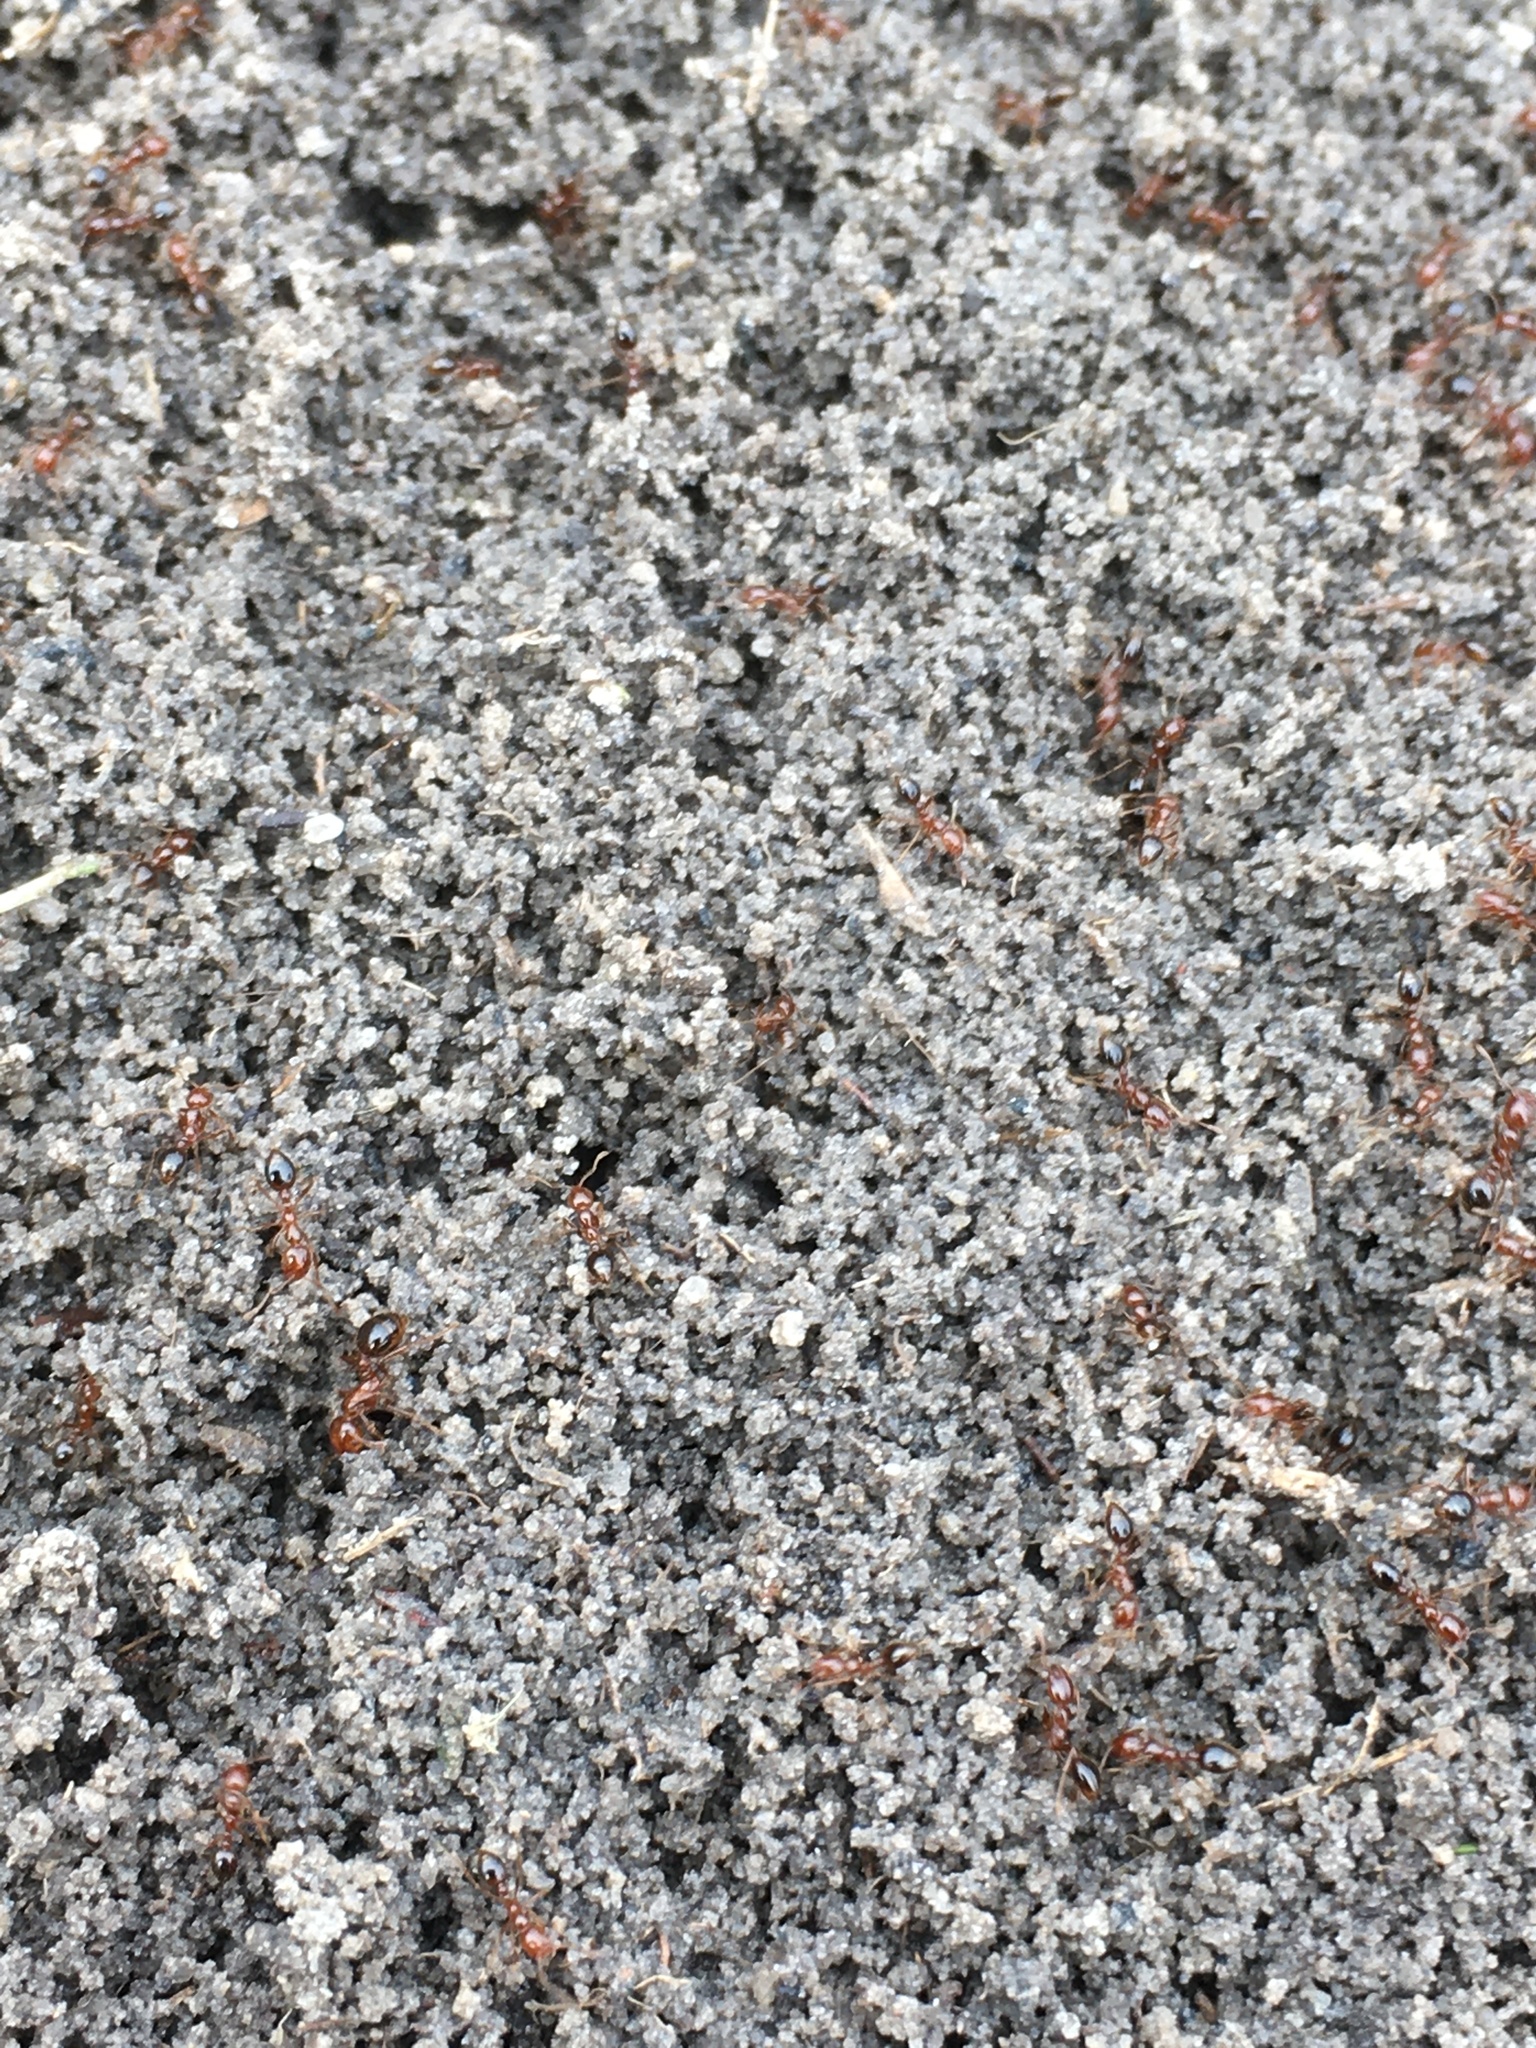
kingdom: Animalia
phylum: Arthropoda
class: Insecta
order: Hymenoptera
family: Formicidae
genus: Solenopsis
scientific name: Solenopsis invicta
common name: Red imported fire ant
